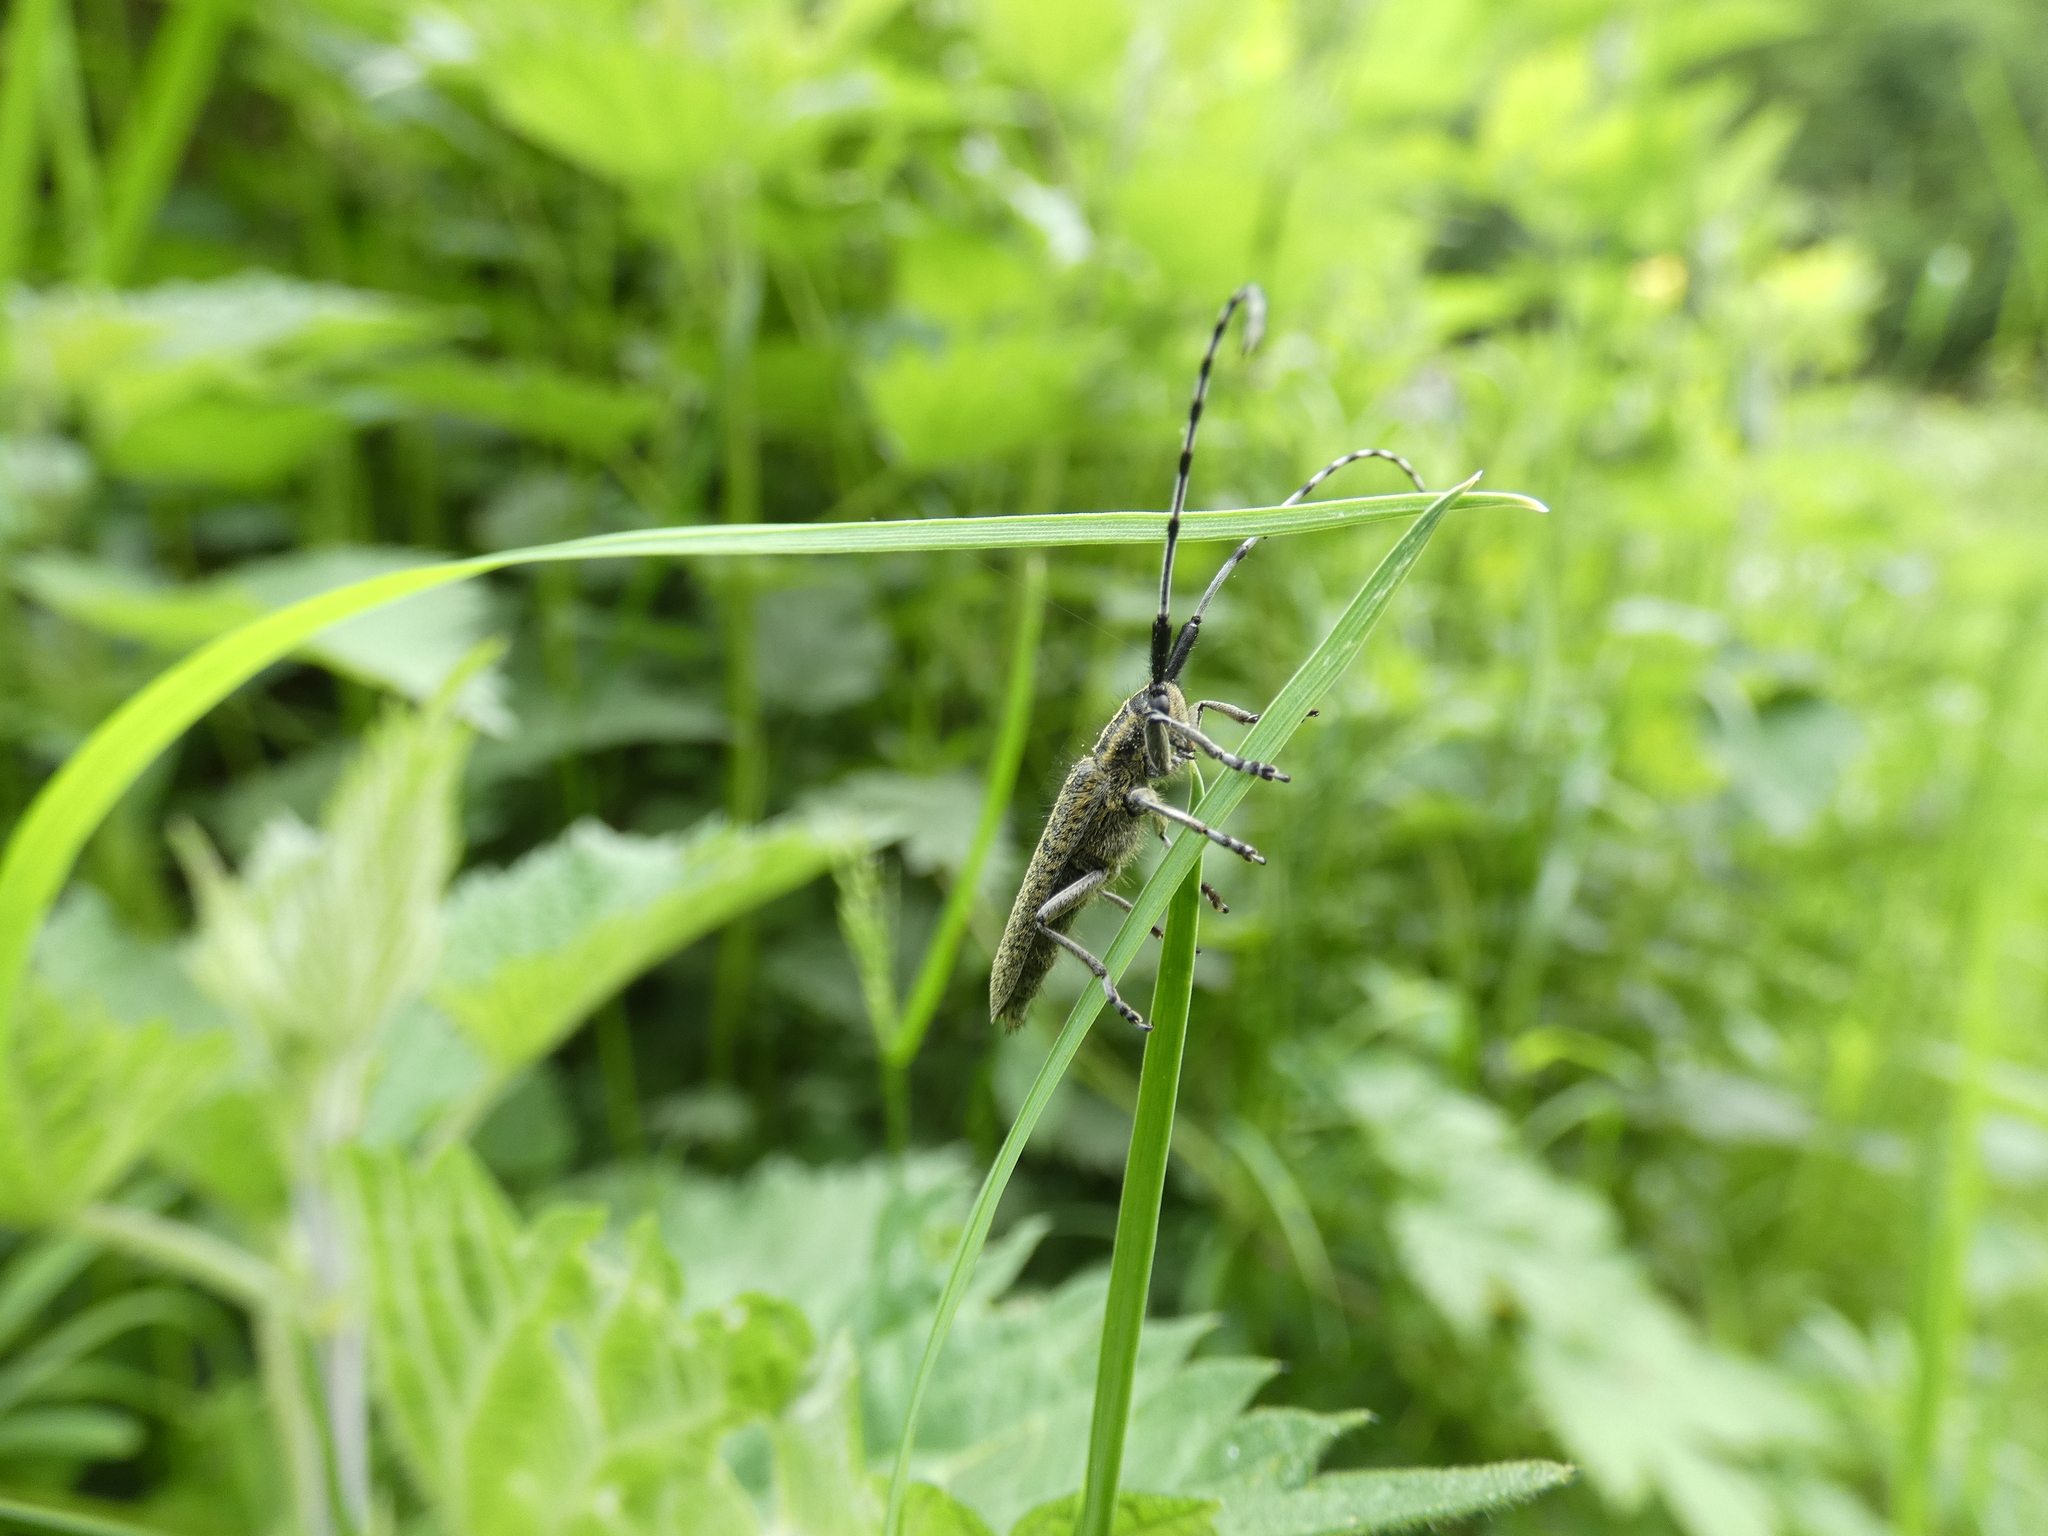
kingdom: Animalia
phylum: Arthropoda
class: Insecta
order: Coleoptera
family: Cerambycidae
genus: Agapanthia
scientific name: Agapanthia villosoviridescens
